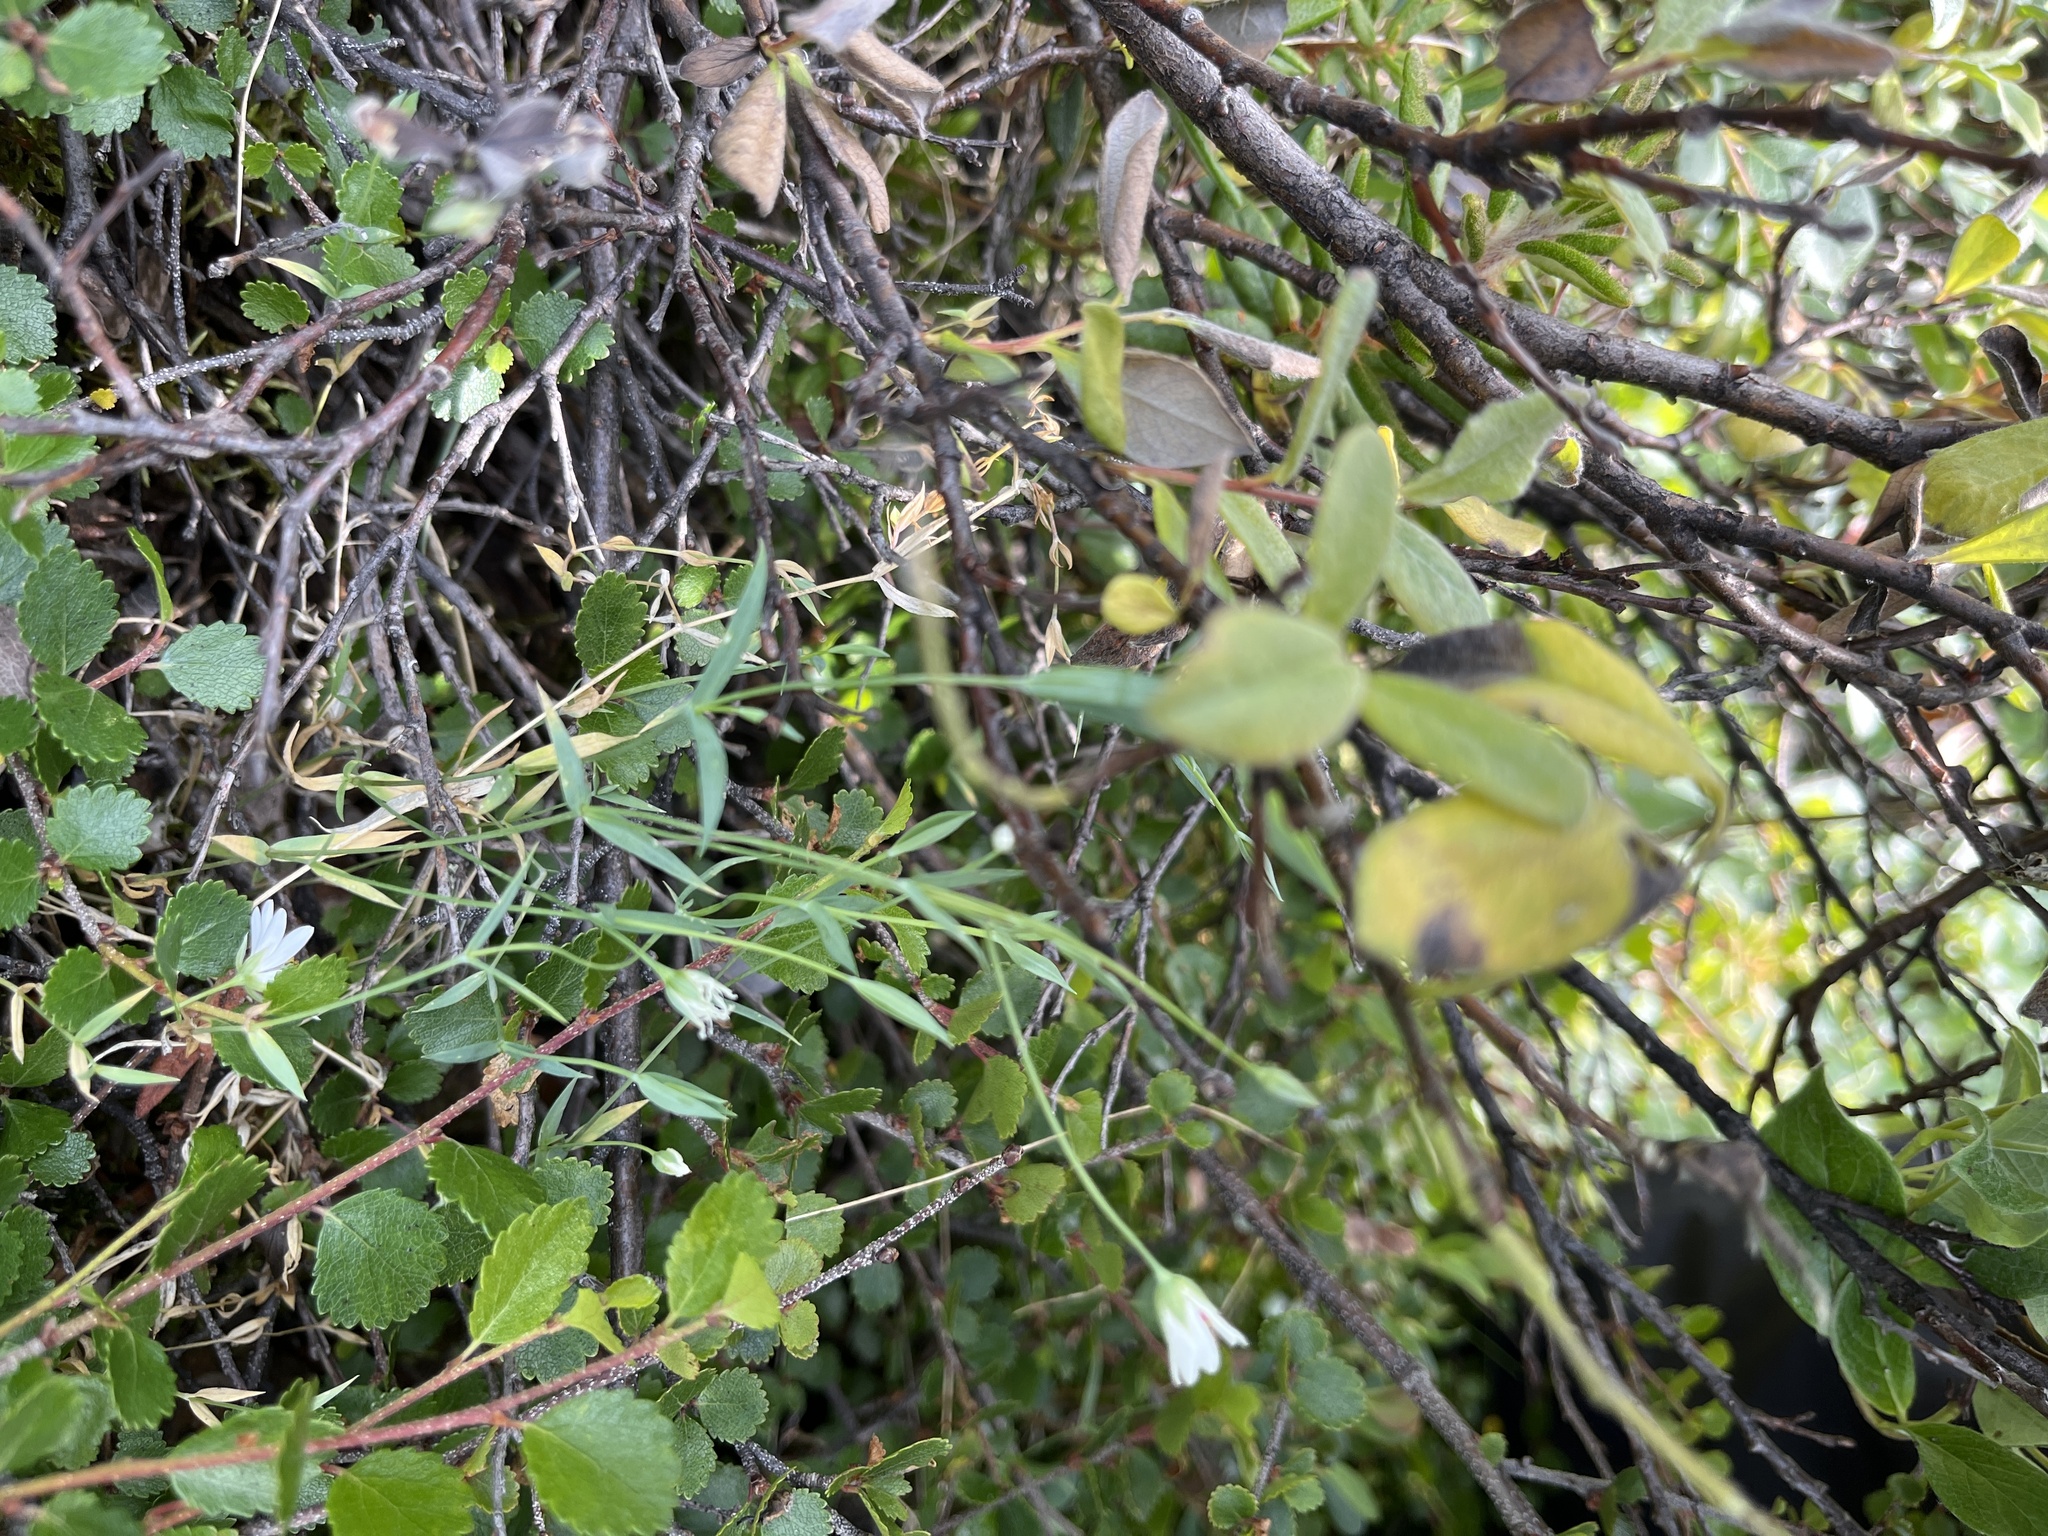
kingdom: Plantae
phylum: Tracheophyta
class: Magnoliopsida
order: Caryophyllales
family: Caryophyllaceae
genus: Stellaria
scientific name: Stellaria longipes
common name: Goldie's starwort
